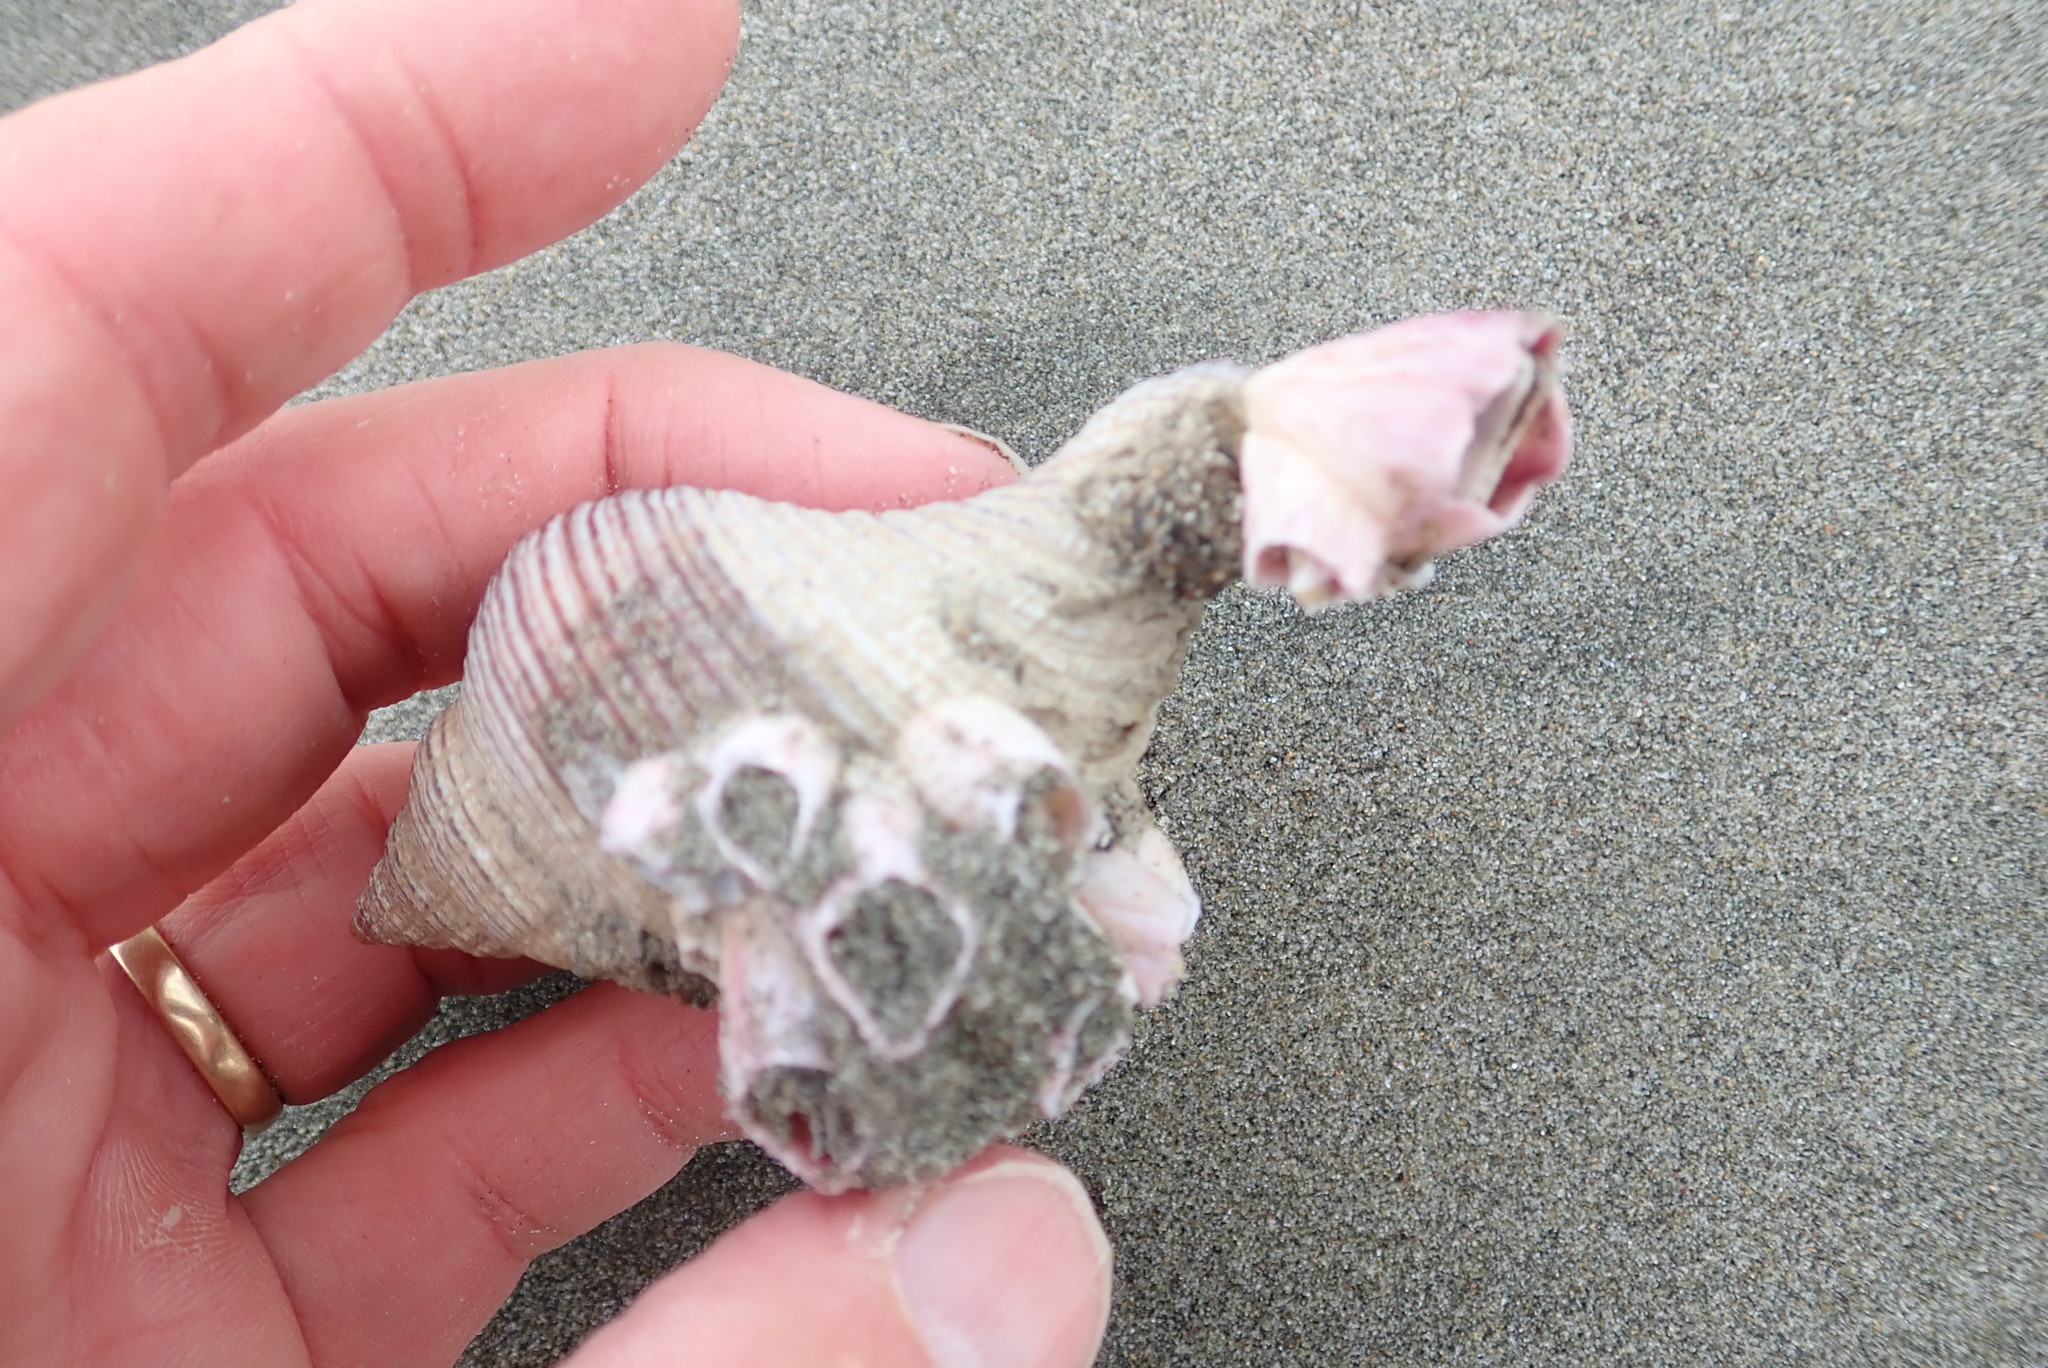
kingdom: Animalia
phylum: Mollusca
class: Gastropoda
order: Neogastropoda
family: Austrosiphonidae
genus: Penion
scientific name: Penion sulcatus
